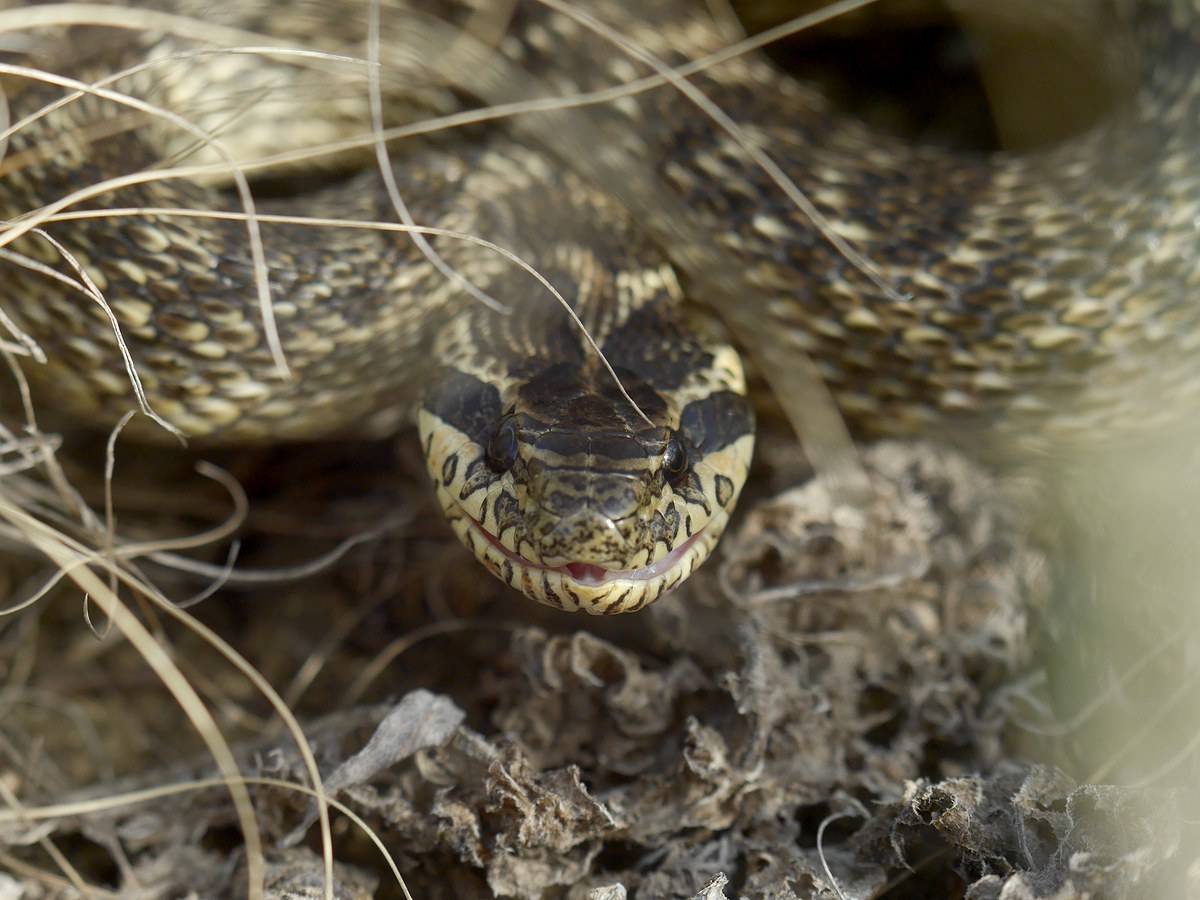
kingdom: Animalia
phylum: Chordata
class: Squamata
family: Colubridae
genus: Elaphe
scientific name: Elaphe sauromates
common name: Eastern four-lined ratsnake
